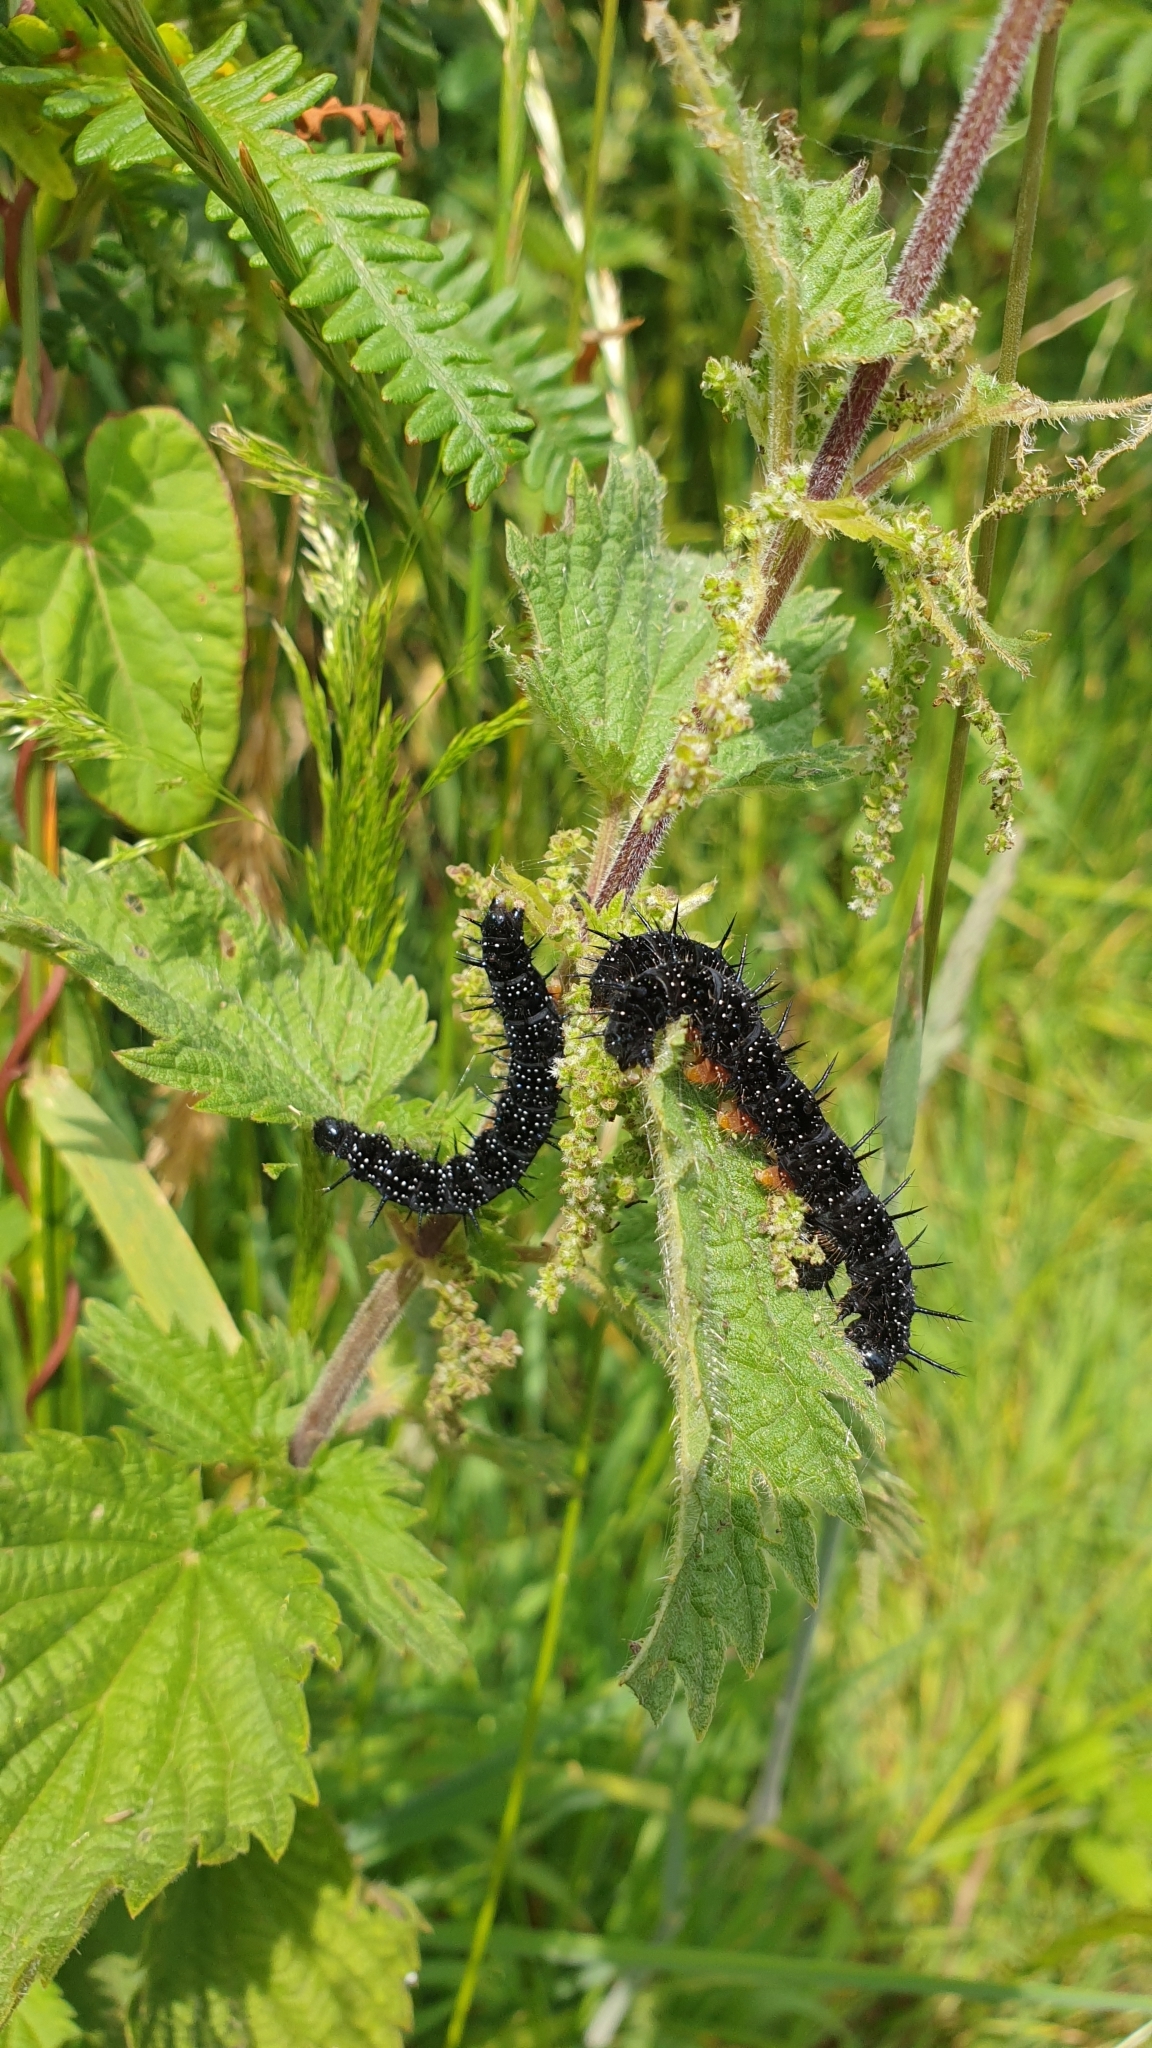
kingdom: Animalia
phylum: Arthropoda
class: Insecta
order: Lepidoptera
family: Nymphalidae
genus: Aglais
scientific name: Aglais io
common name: Peacock
